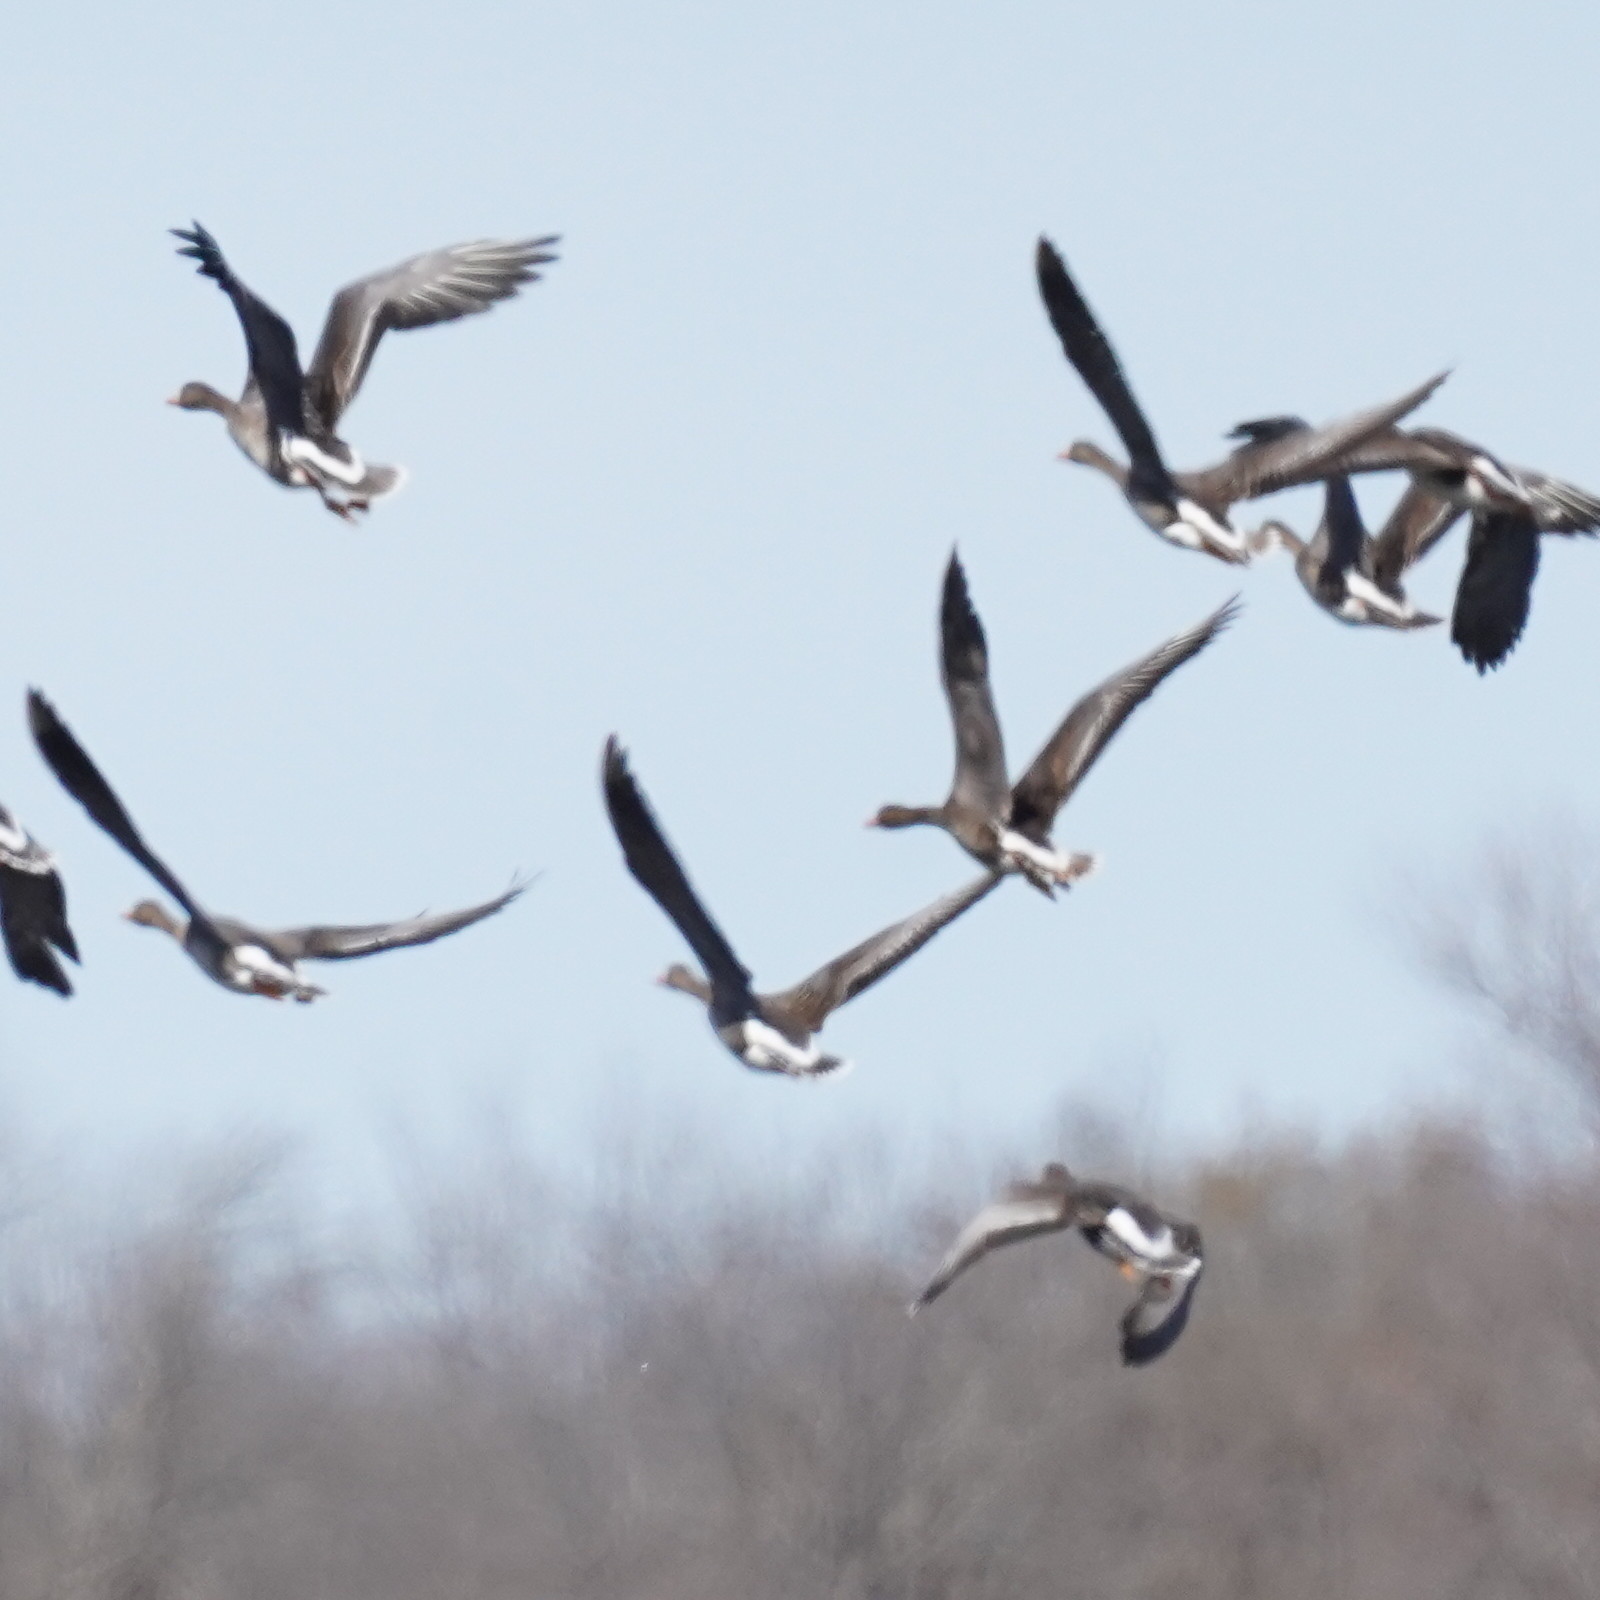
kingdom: Animalia
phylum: Chordata
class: Aves
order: Anseriformes
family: Anatidae
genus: Anser
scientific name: Anser albifrons
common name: Greater white-fronted goose
